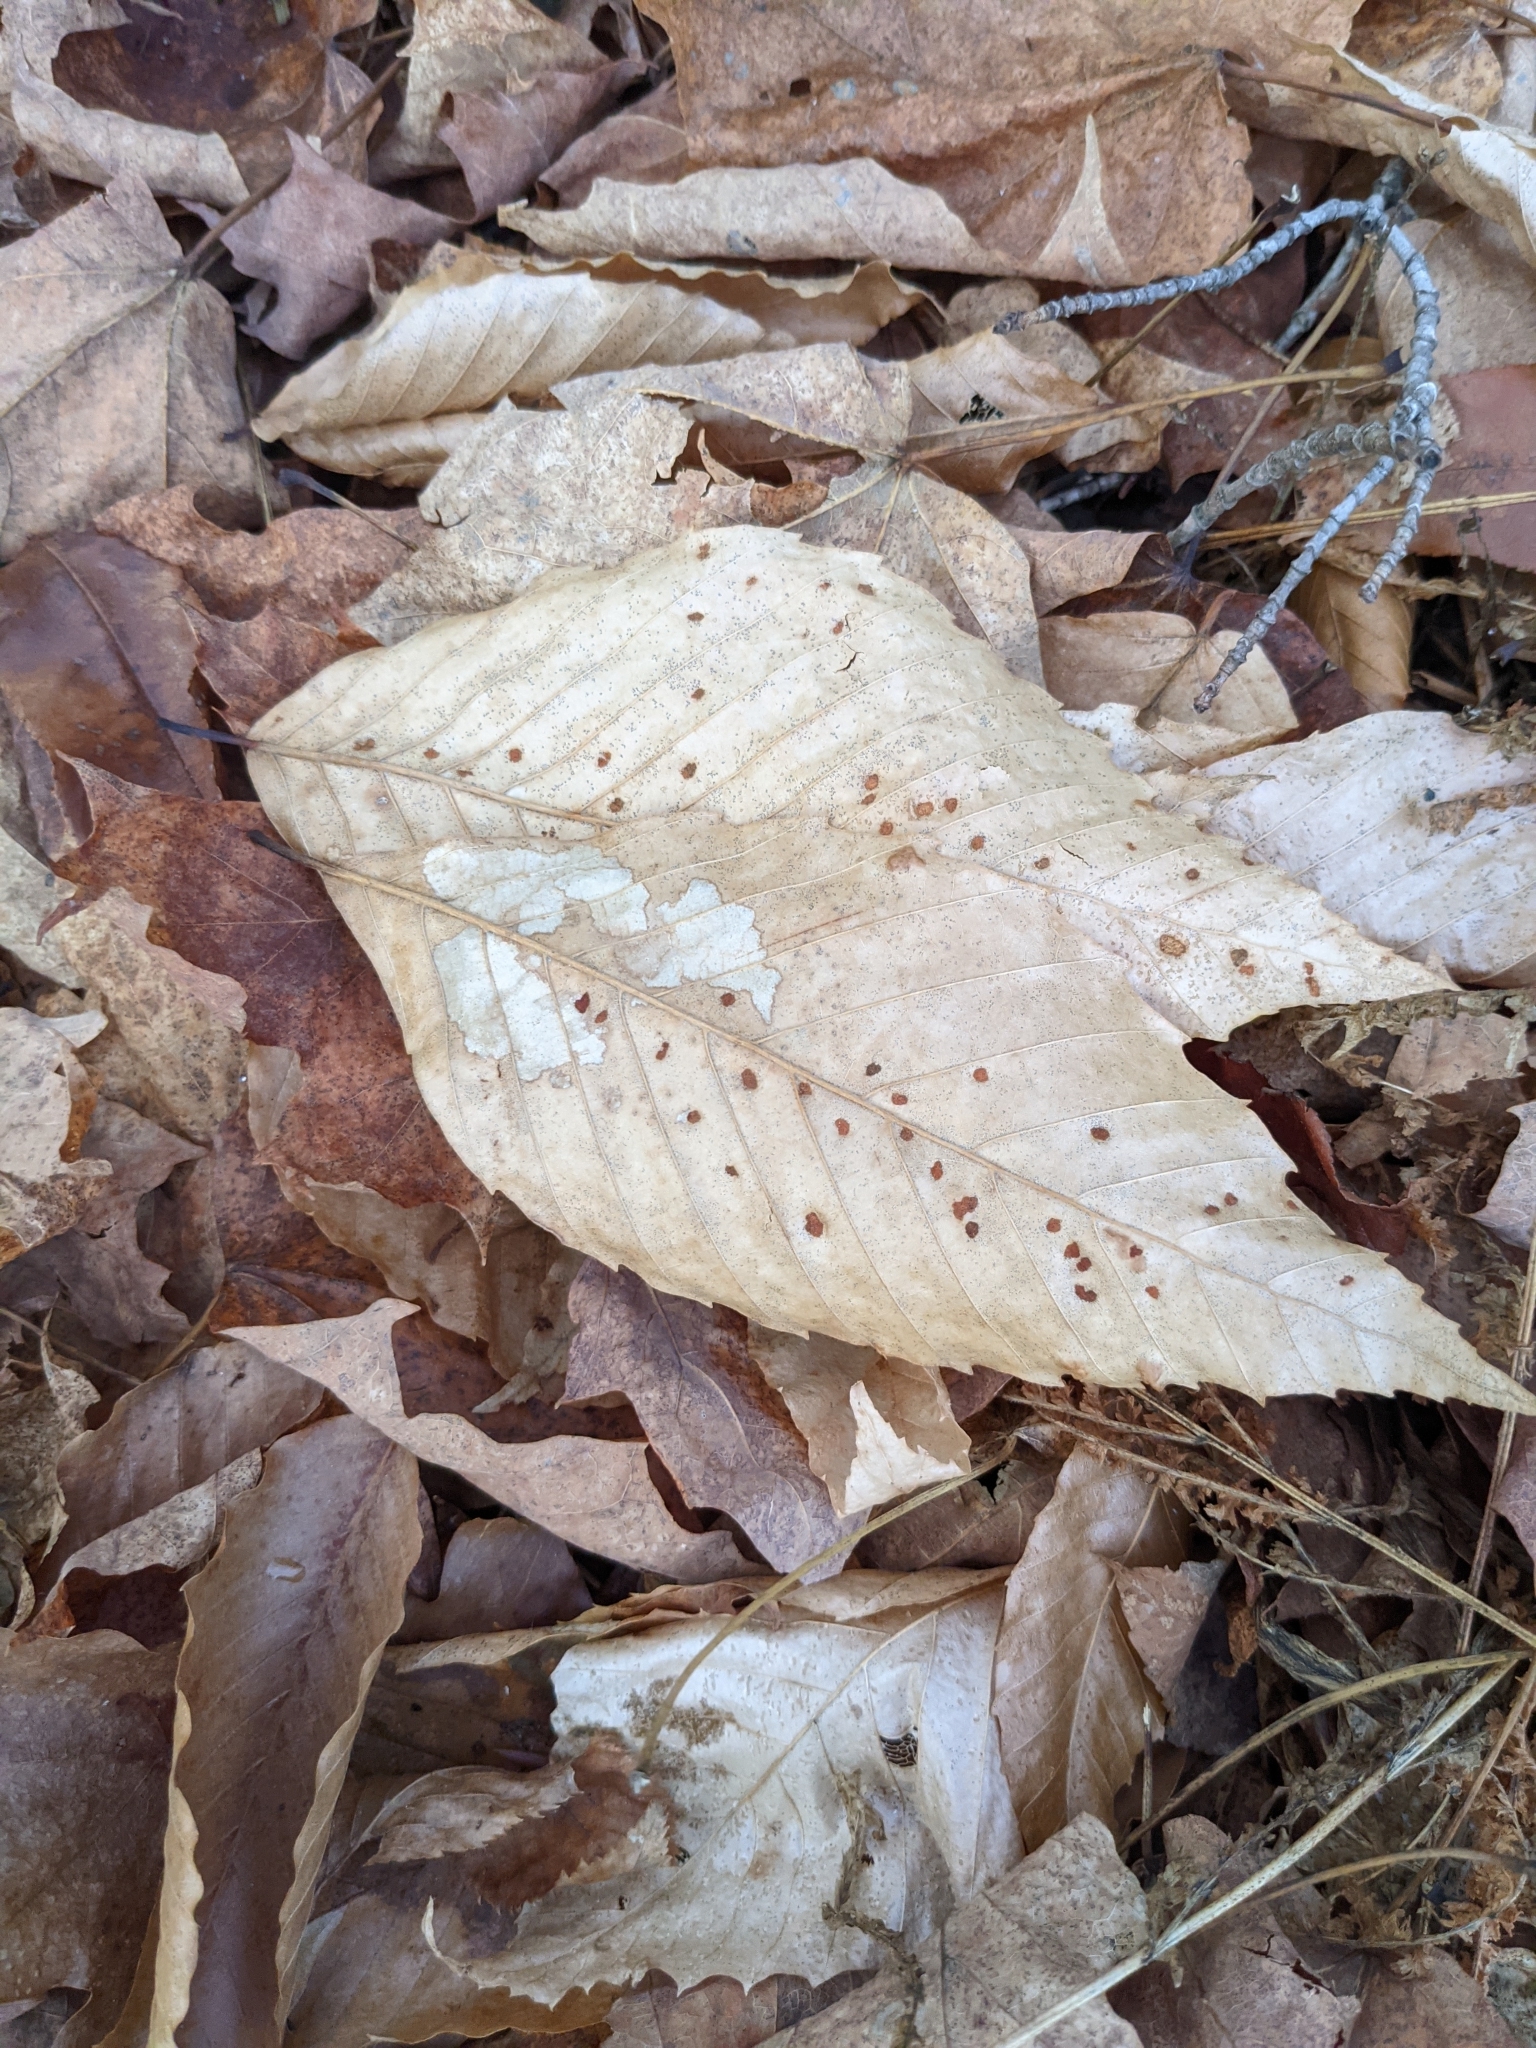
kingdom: Plantae
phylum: Tracheophyta
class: Magnoliopsida
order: Fagales
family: Fagaceae
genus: Fagus
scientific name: Fagus grandifolia
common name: American beech
